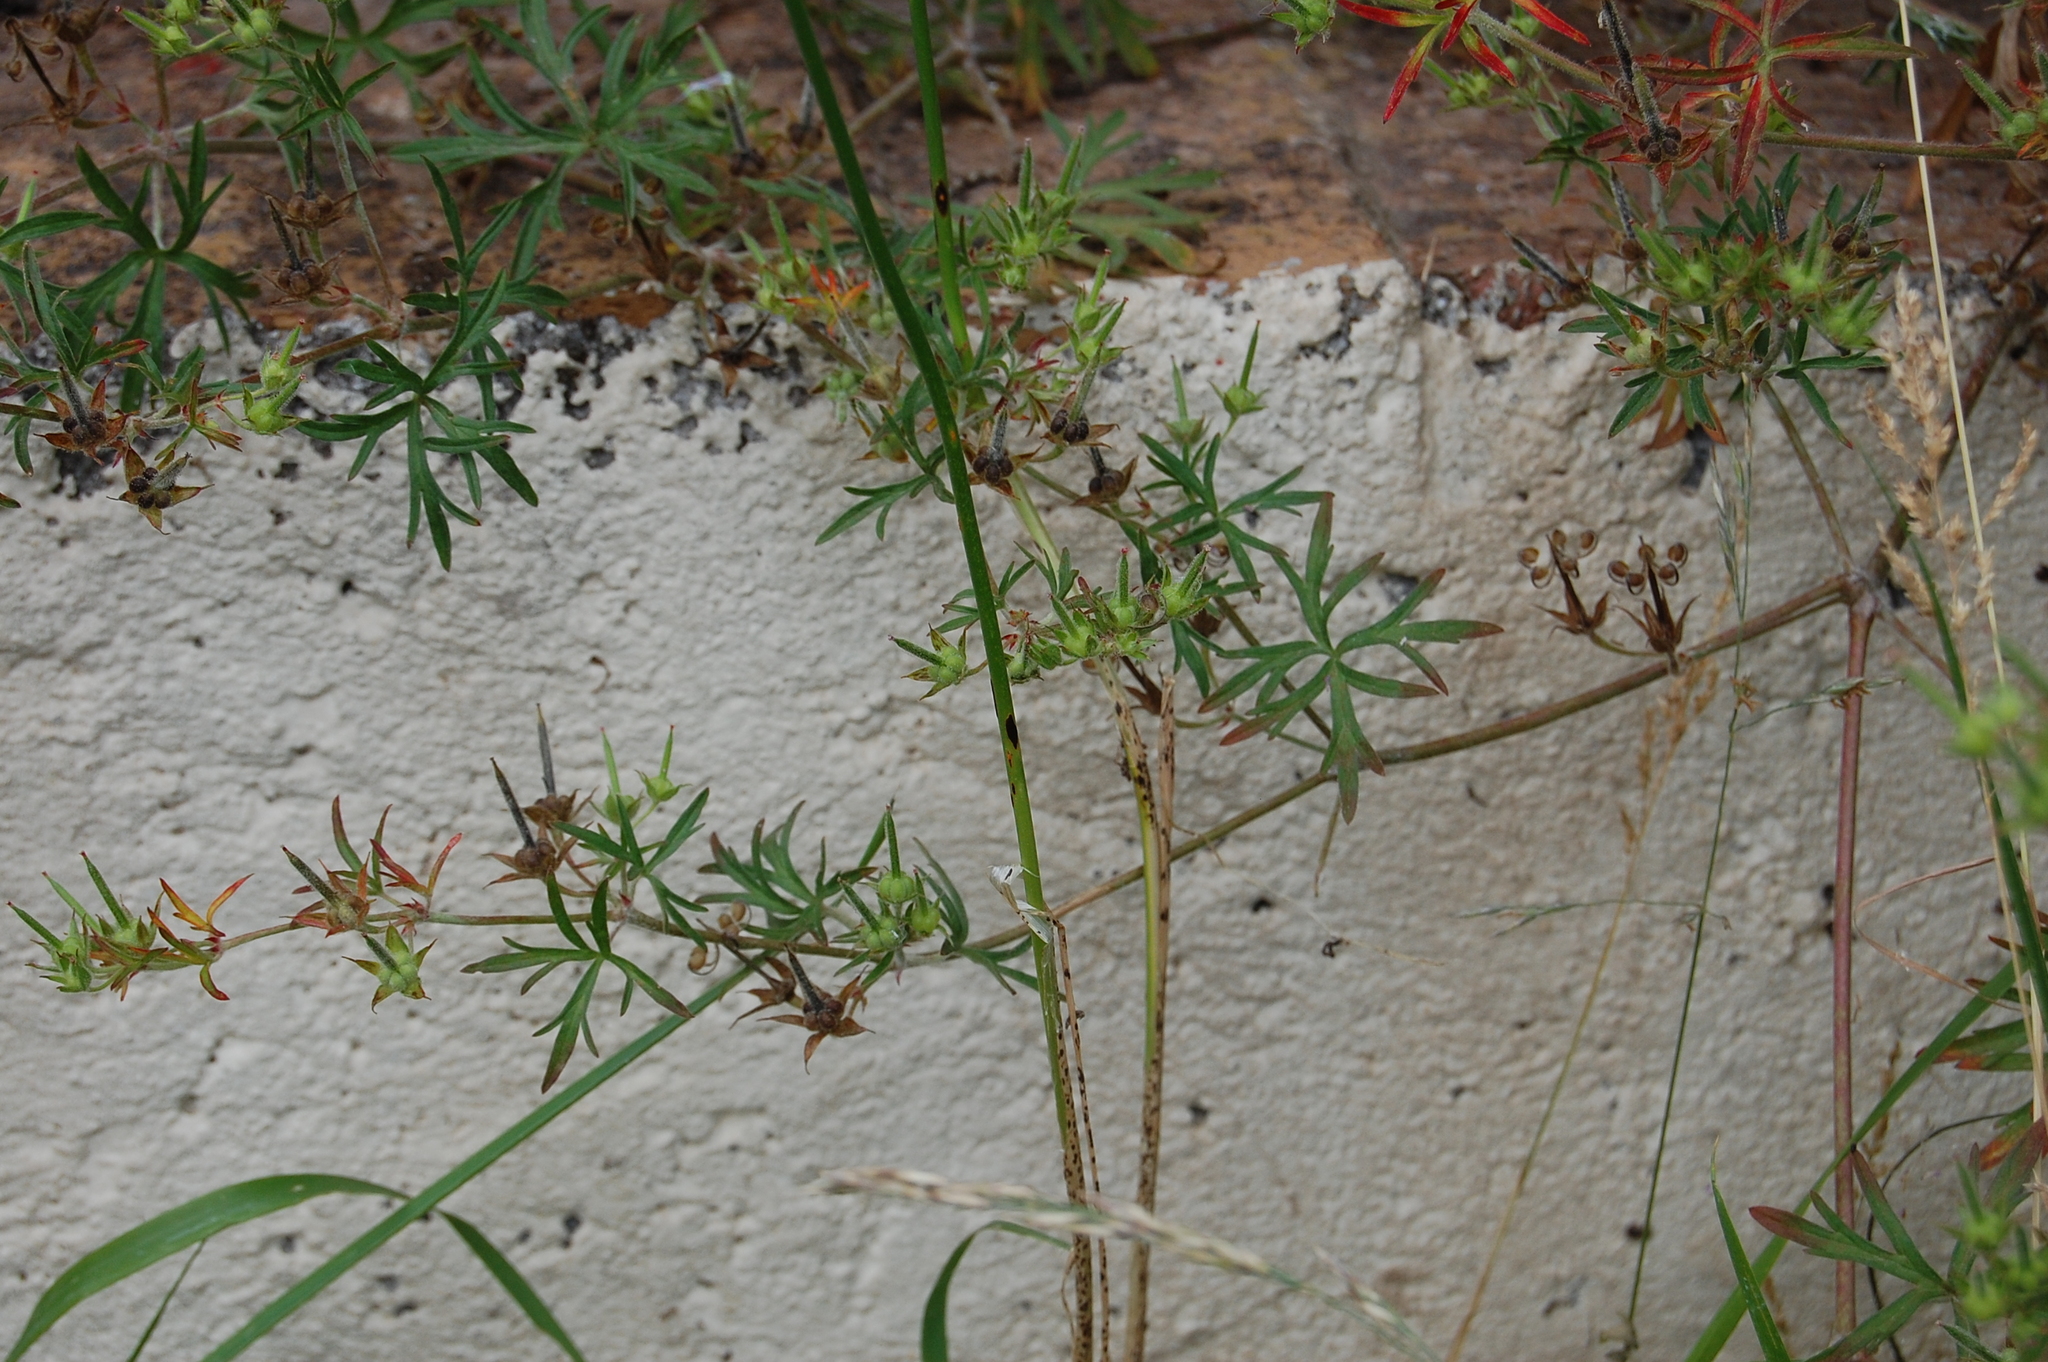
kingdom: Plantae
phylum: Tracheophyta
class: Liliopsida
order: Asparagales
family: Amaryllidaceae
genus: Allium
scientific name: Allium vineale
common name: Crow garlic
